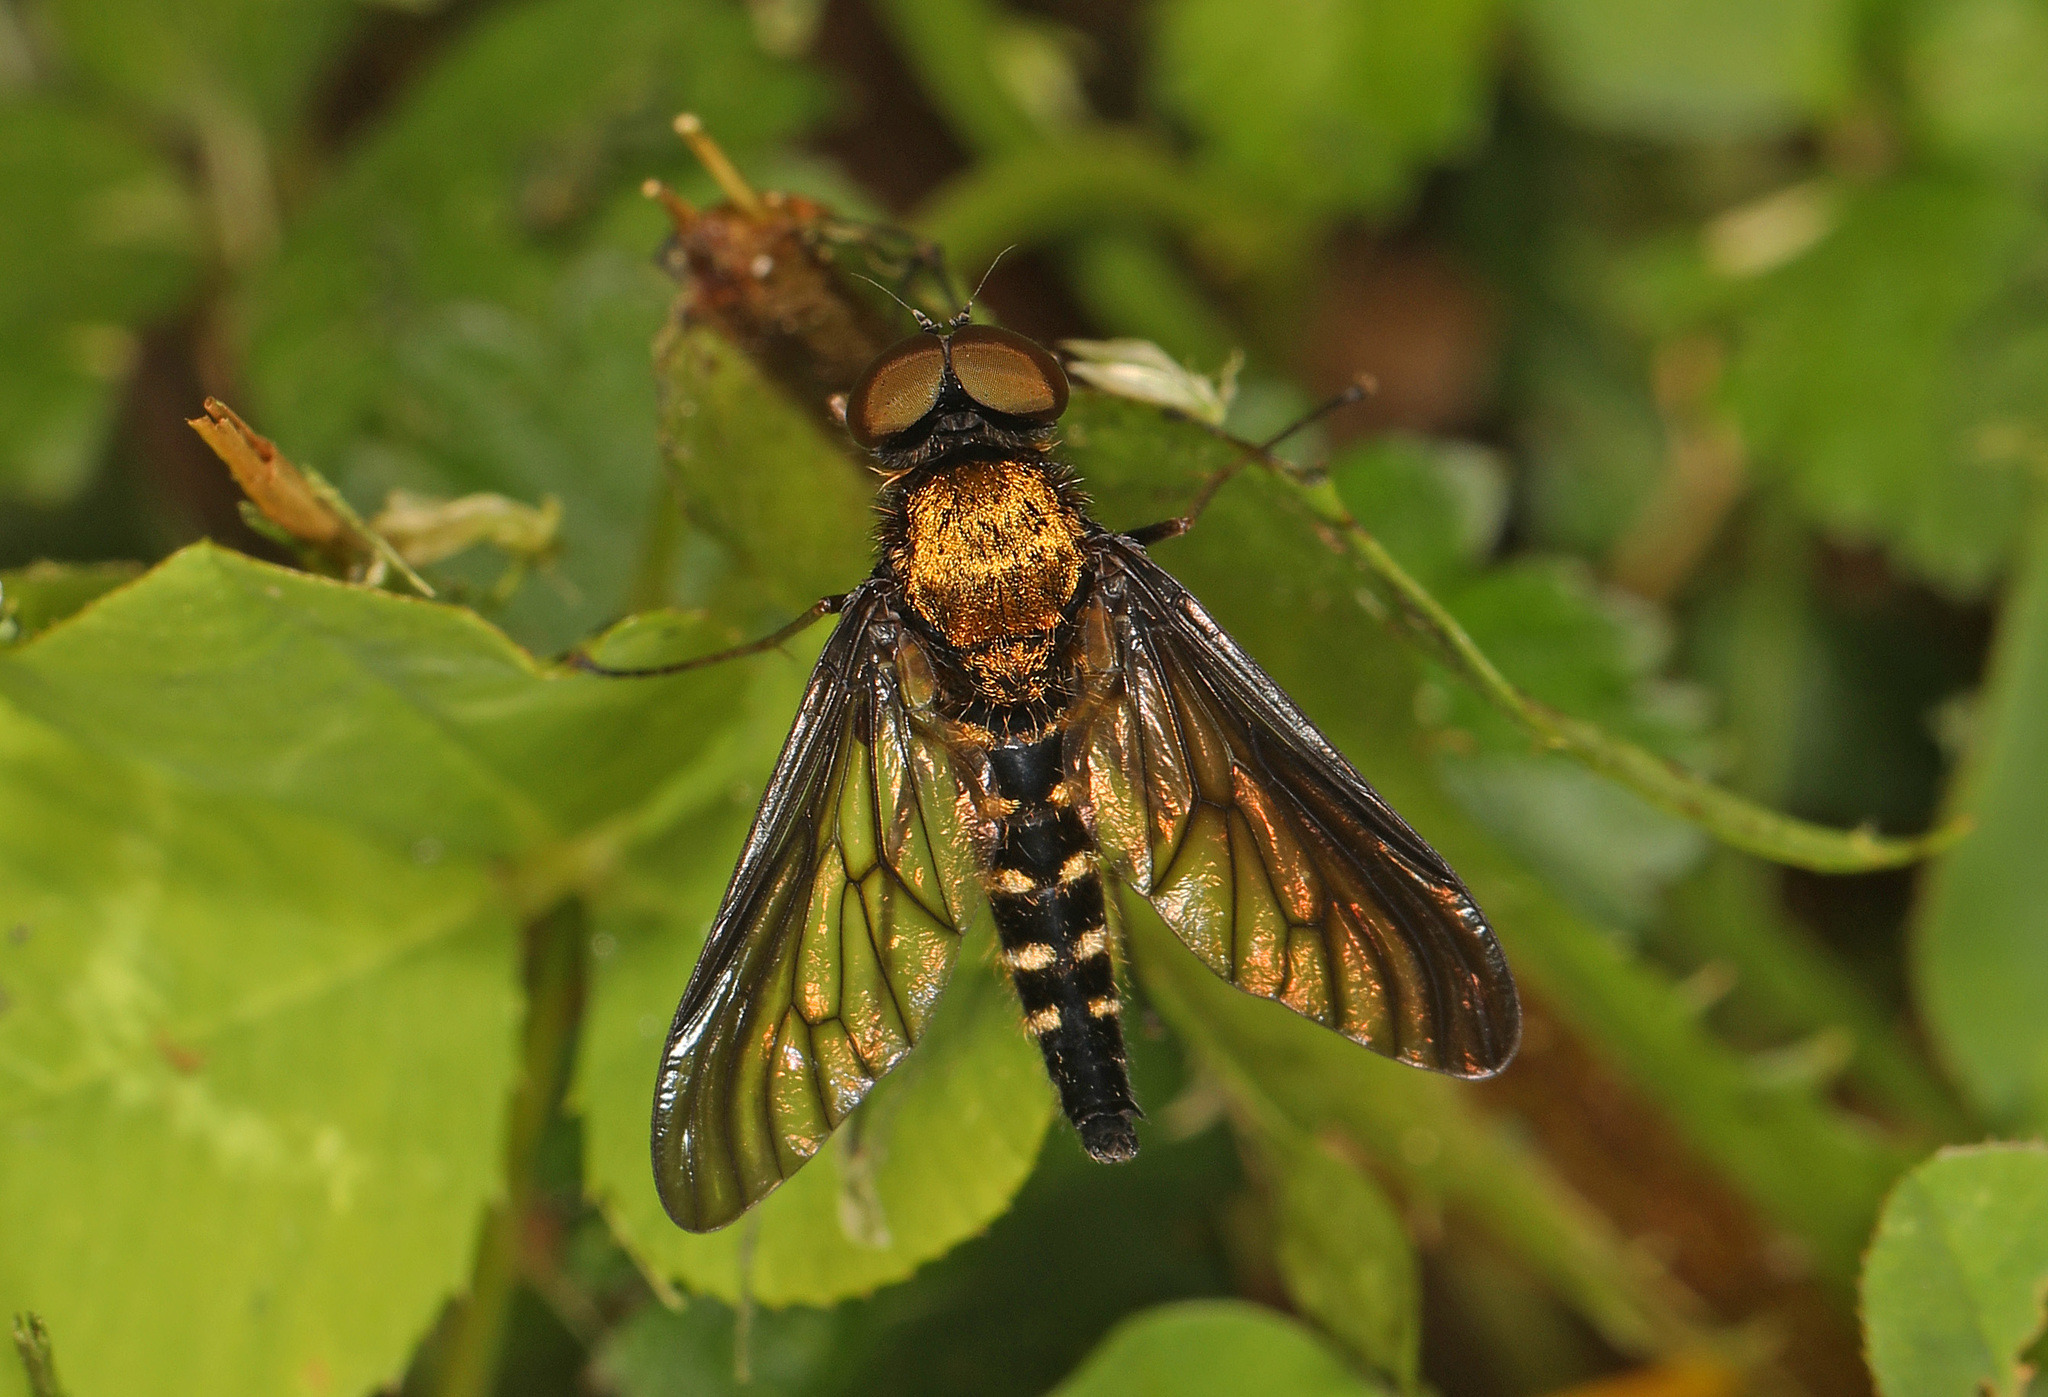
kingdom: Animalia
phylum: Arthropoda
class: Insecta
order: Diptera
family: Rhagionidae
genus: Chrysopilus
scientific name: Chrysopilus thoracicus
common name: Golden-backed snipe fly
